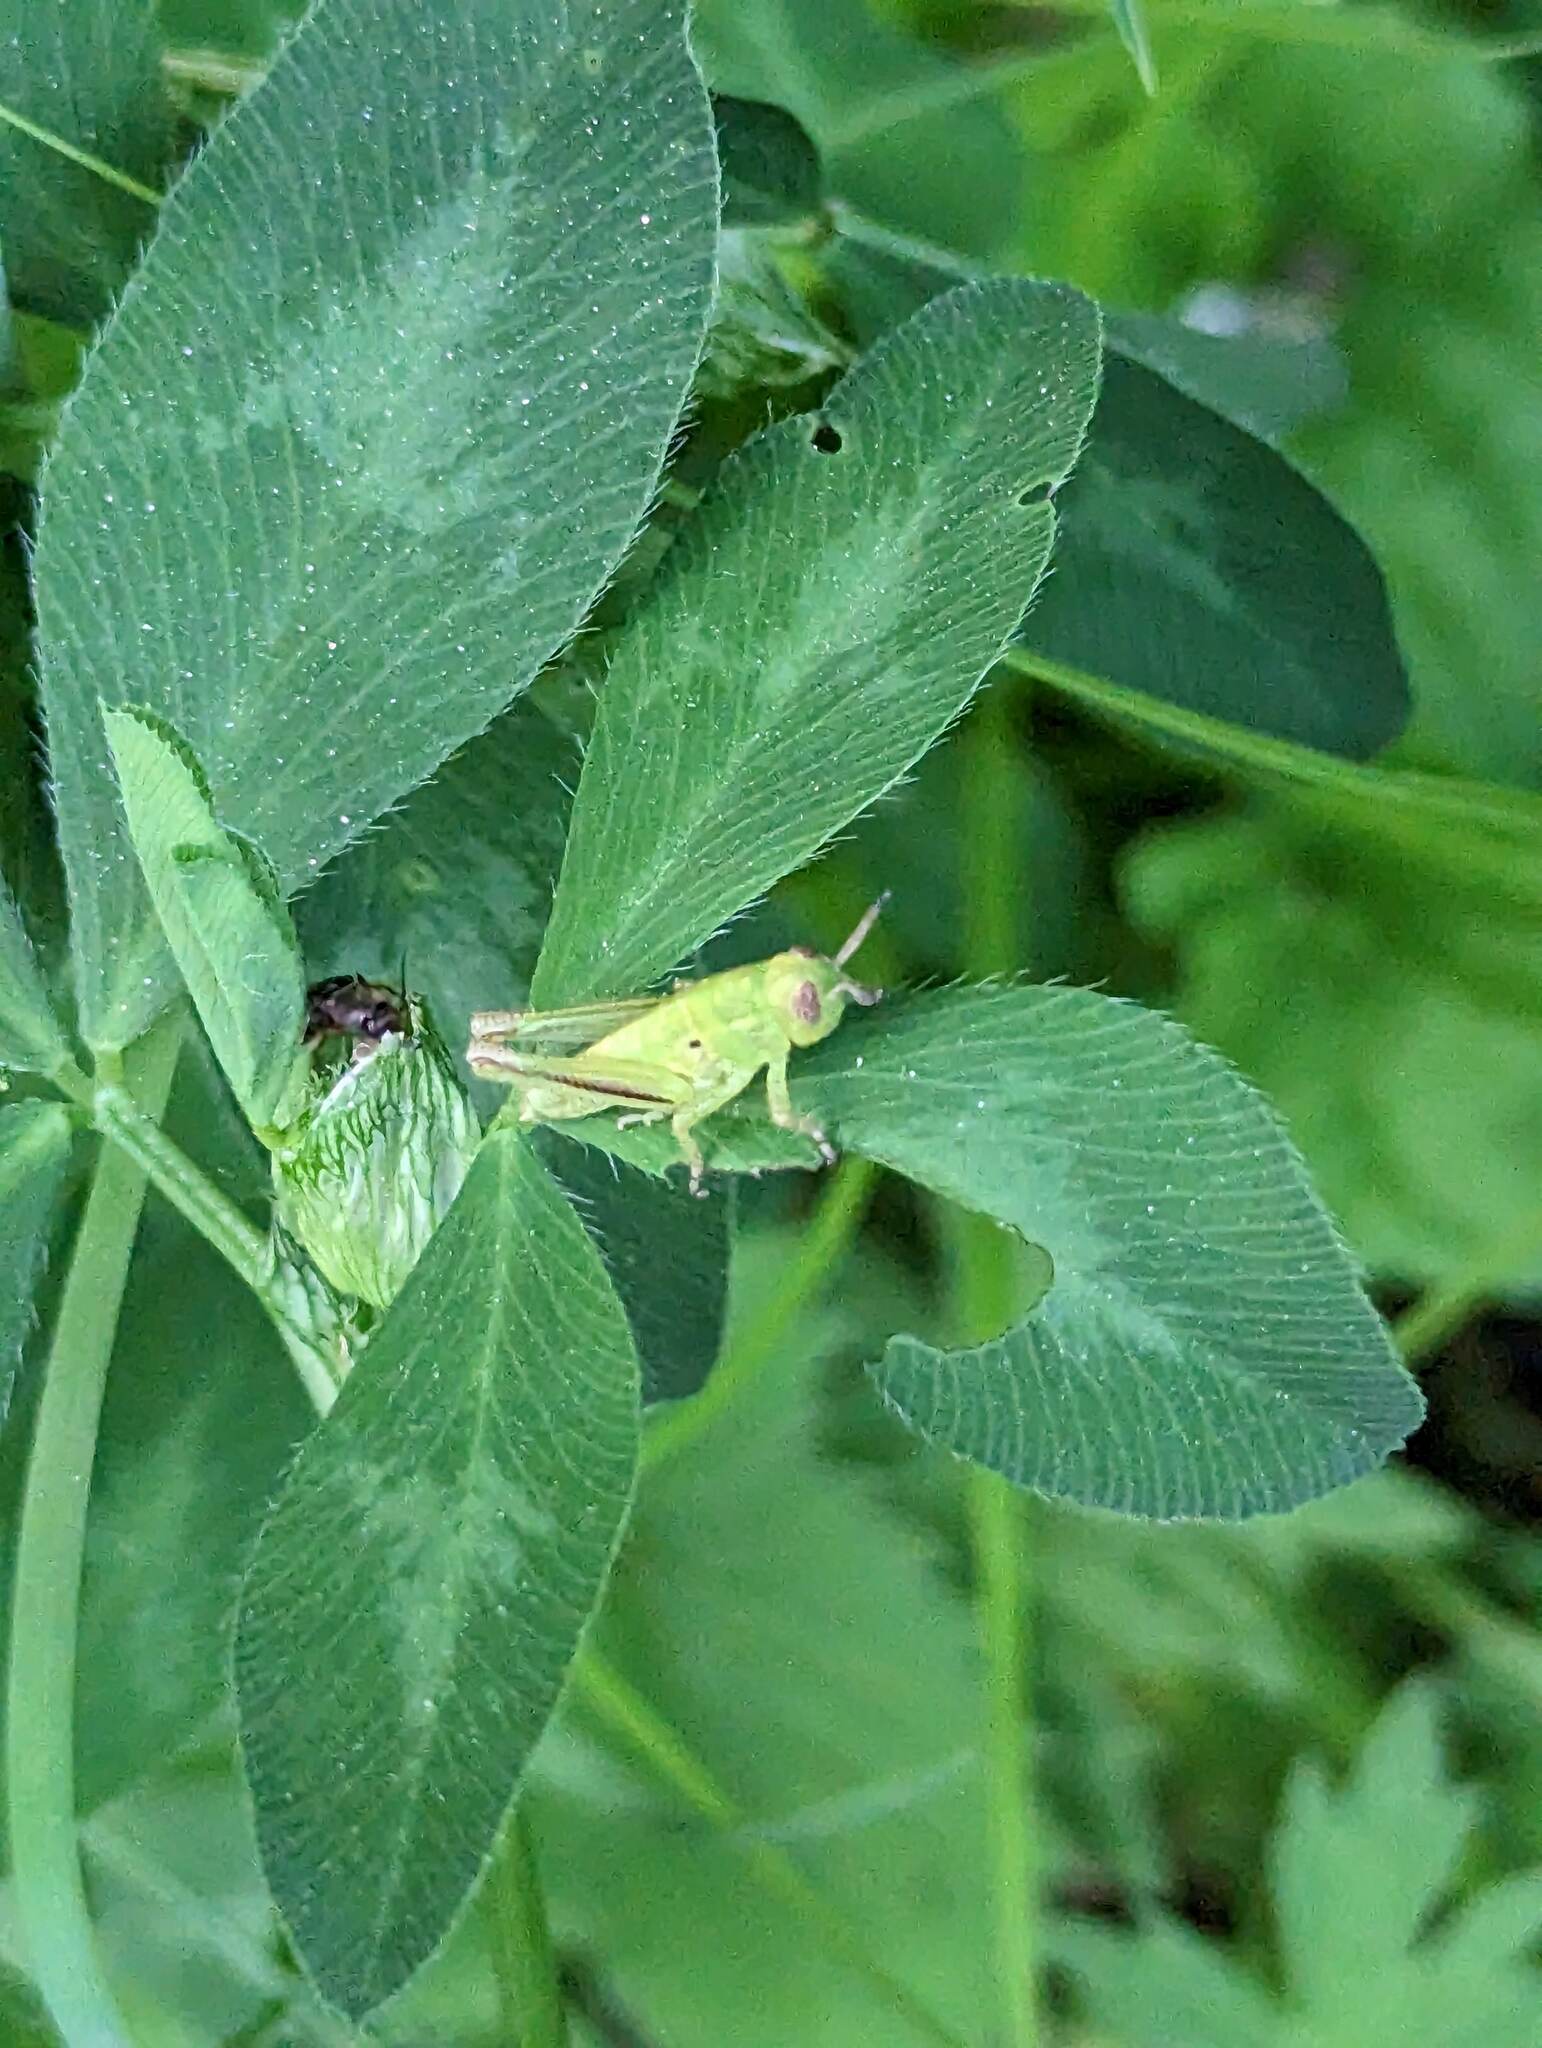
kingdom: Animalia
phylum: Arthropoda
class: Insecta
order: Orthoptera
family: Acrididae
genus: Melanoplus
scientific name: Melanoplus bivittatus
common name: Two-striped grasshopper
